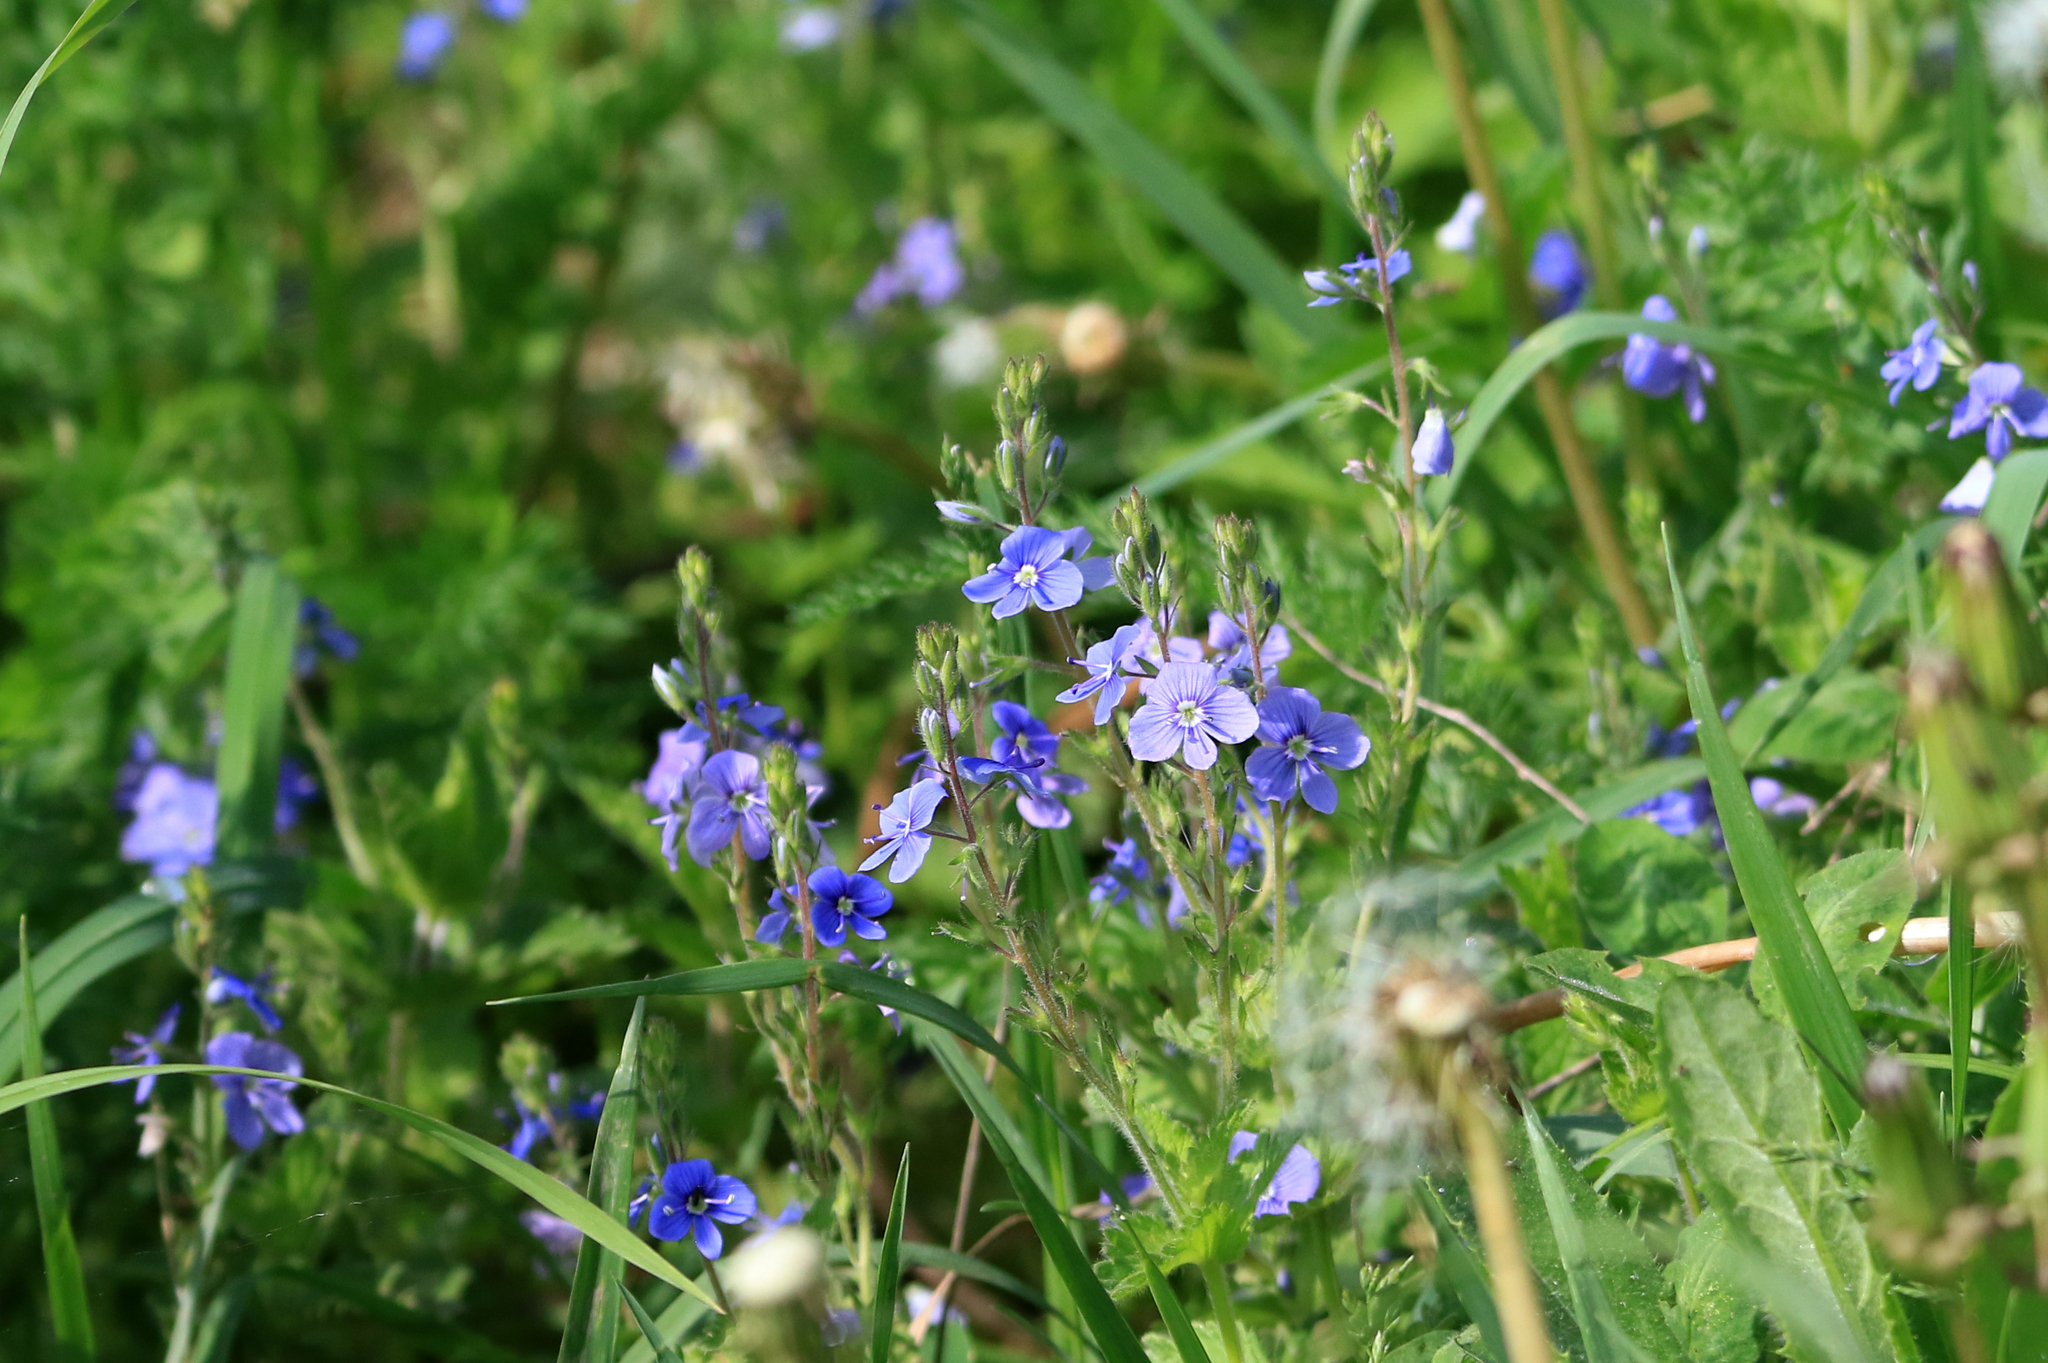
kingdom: Plantae
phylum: Tracheophyta
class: Magnoliopsida
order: Lamiales
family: Plantaginaceae
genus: Veronica
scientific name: Veronica chamaedrys
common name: Germander speedwell
